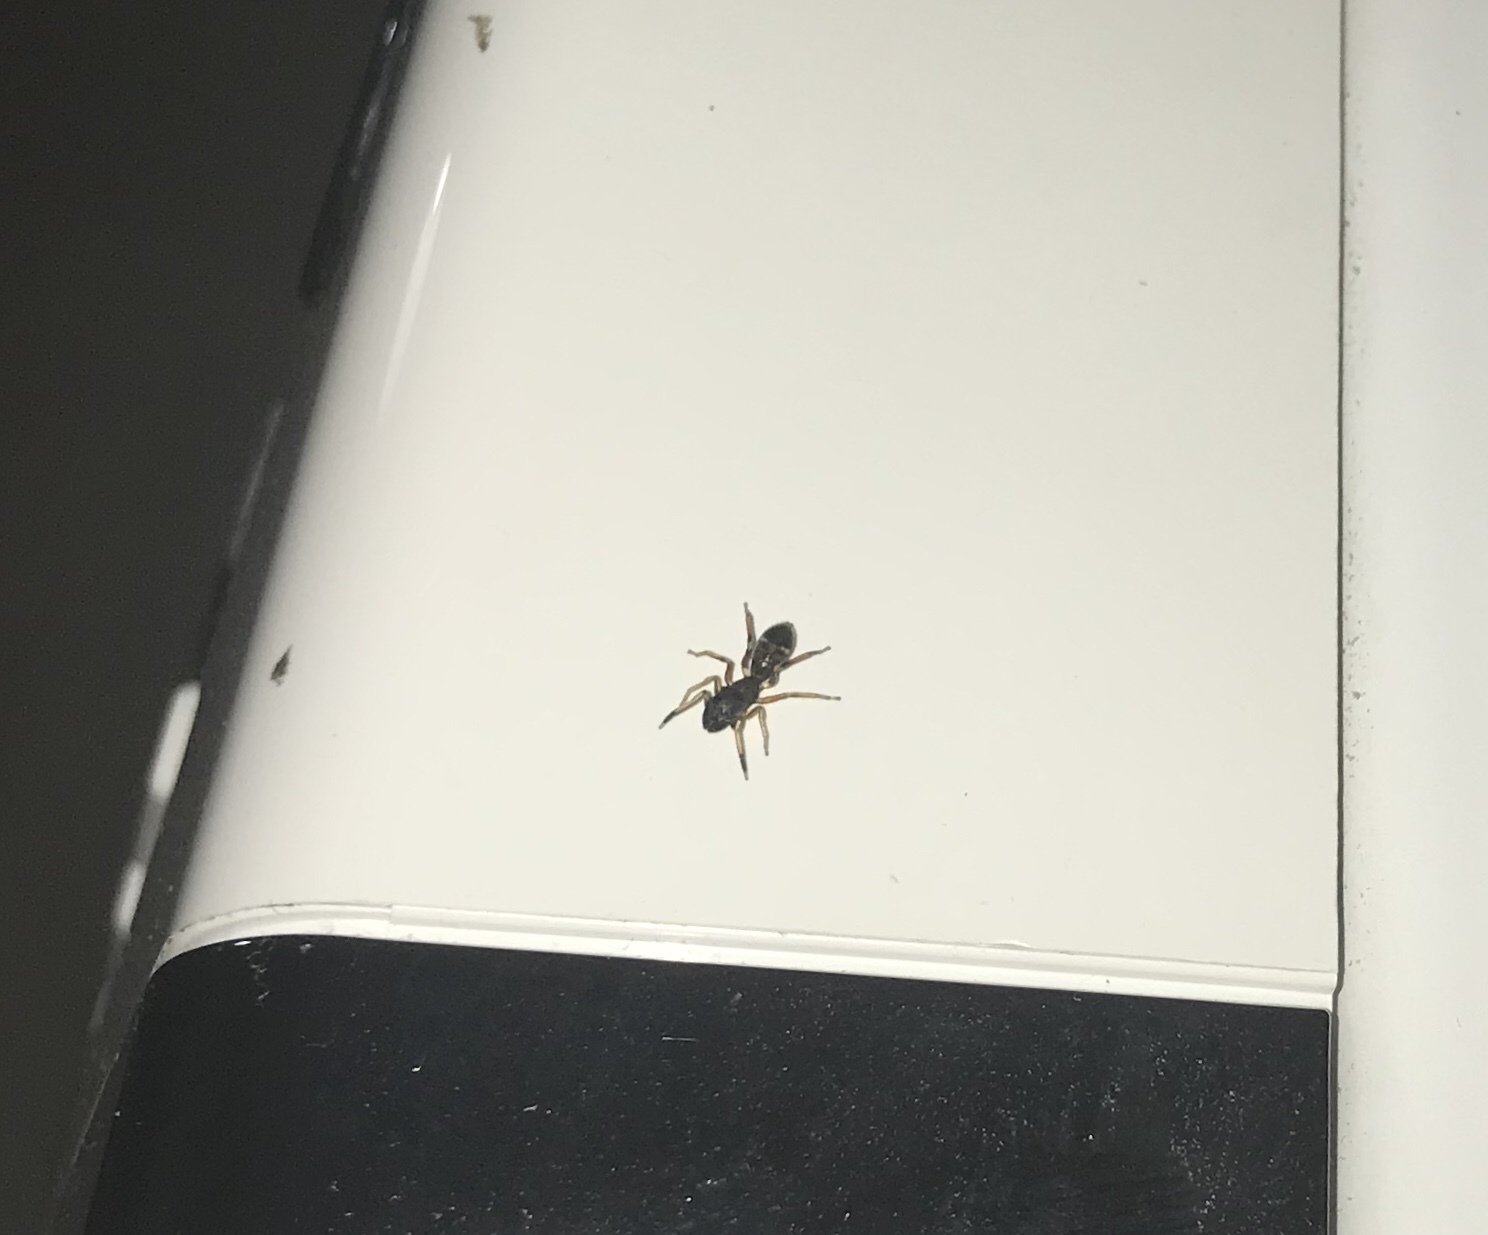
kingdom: Animalia
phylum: Arthropoda
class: Arachnida
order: Araneae
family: Salticidae
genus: Myrmarachne
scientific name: Myrmarachne formicaria
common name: Ant mimic jumping spider
